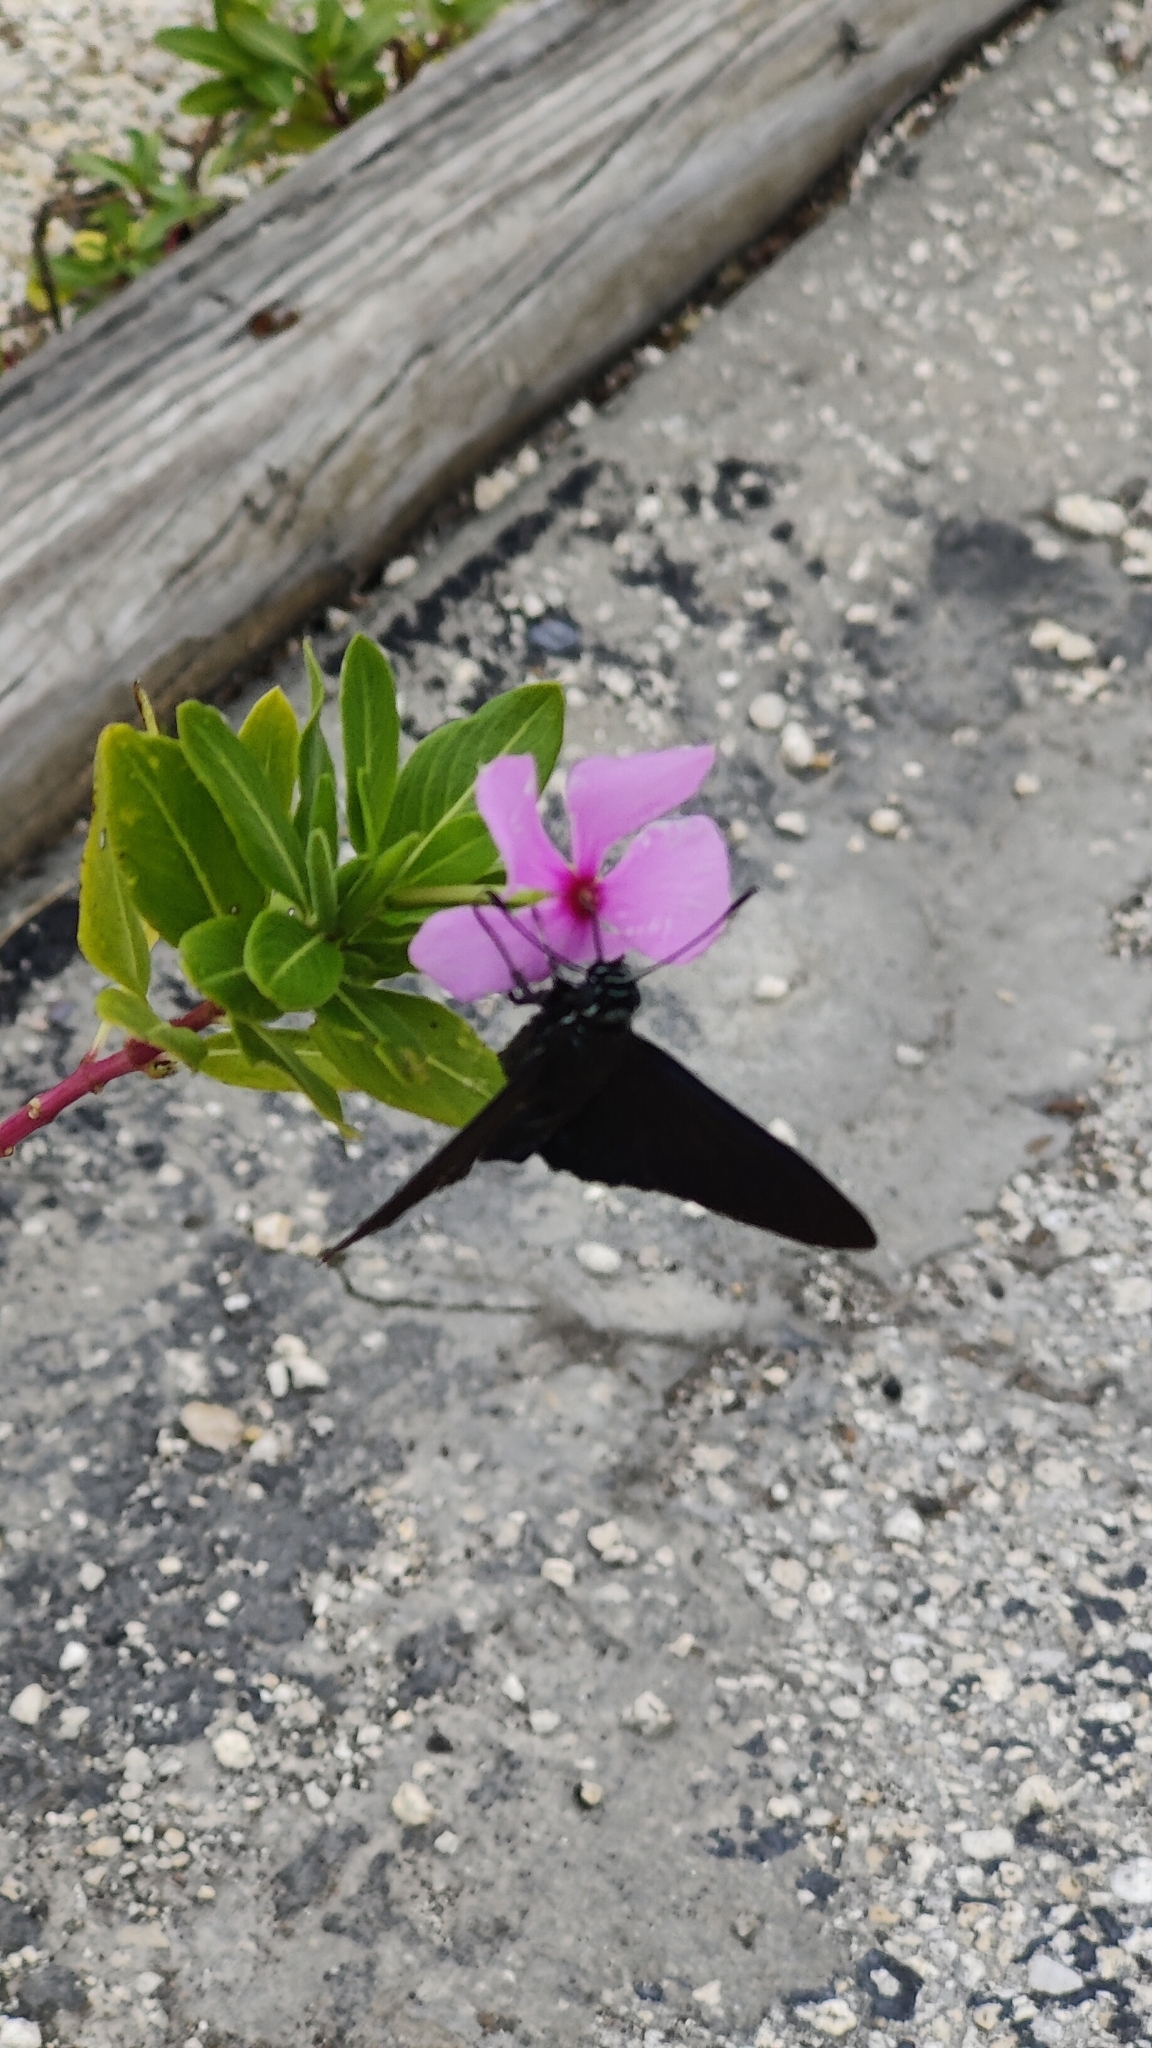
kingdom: Animalia
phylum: Arthropoda
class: Insecta
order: Lepidoptera
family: Hesperiidae
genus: Phocides
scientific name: Phocides pigmalion
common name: Mangrove skipper
